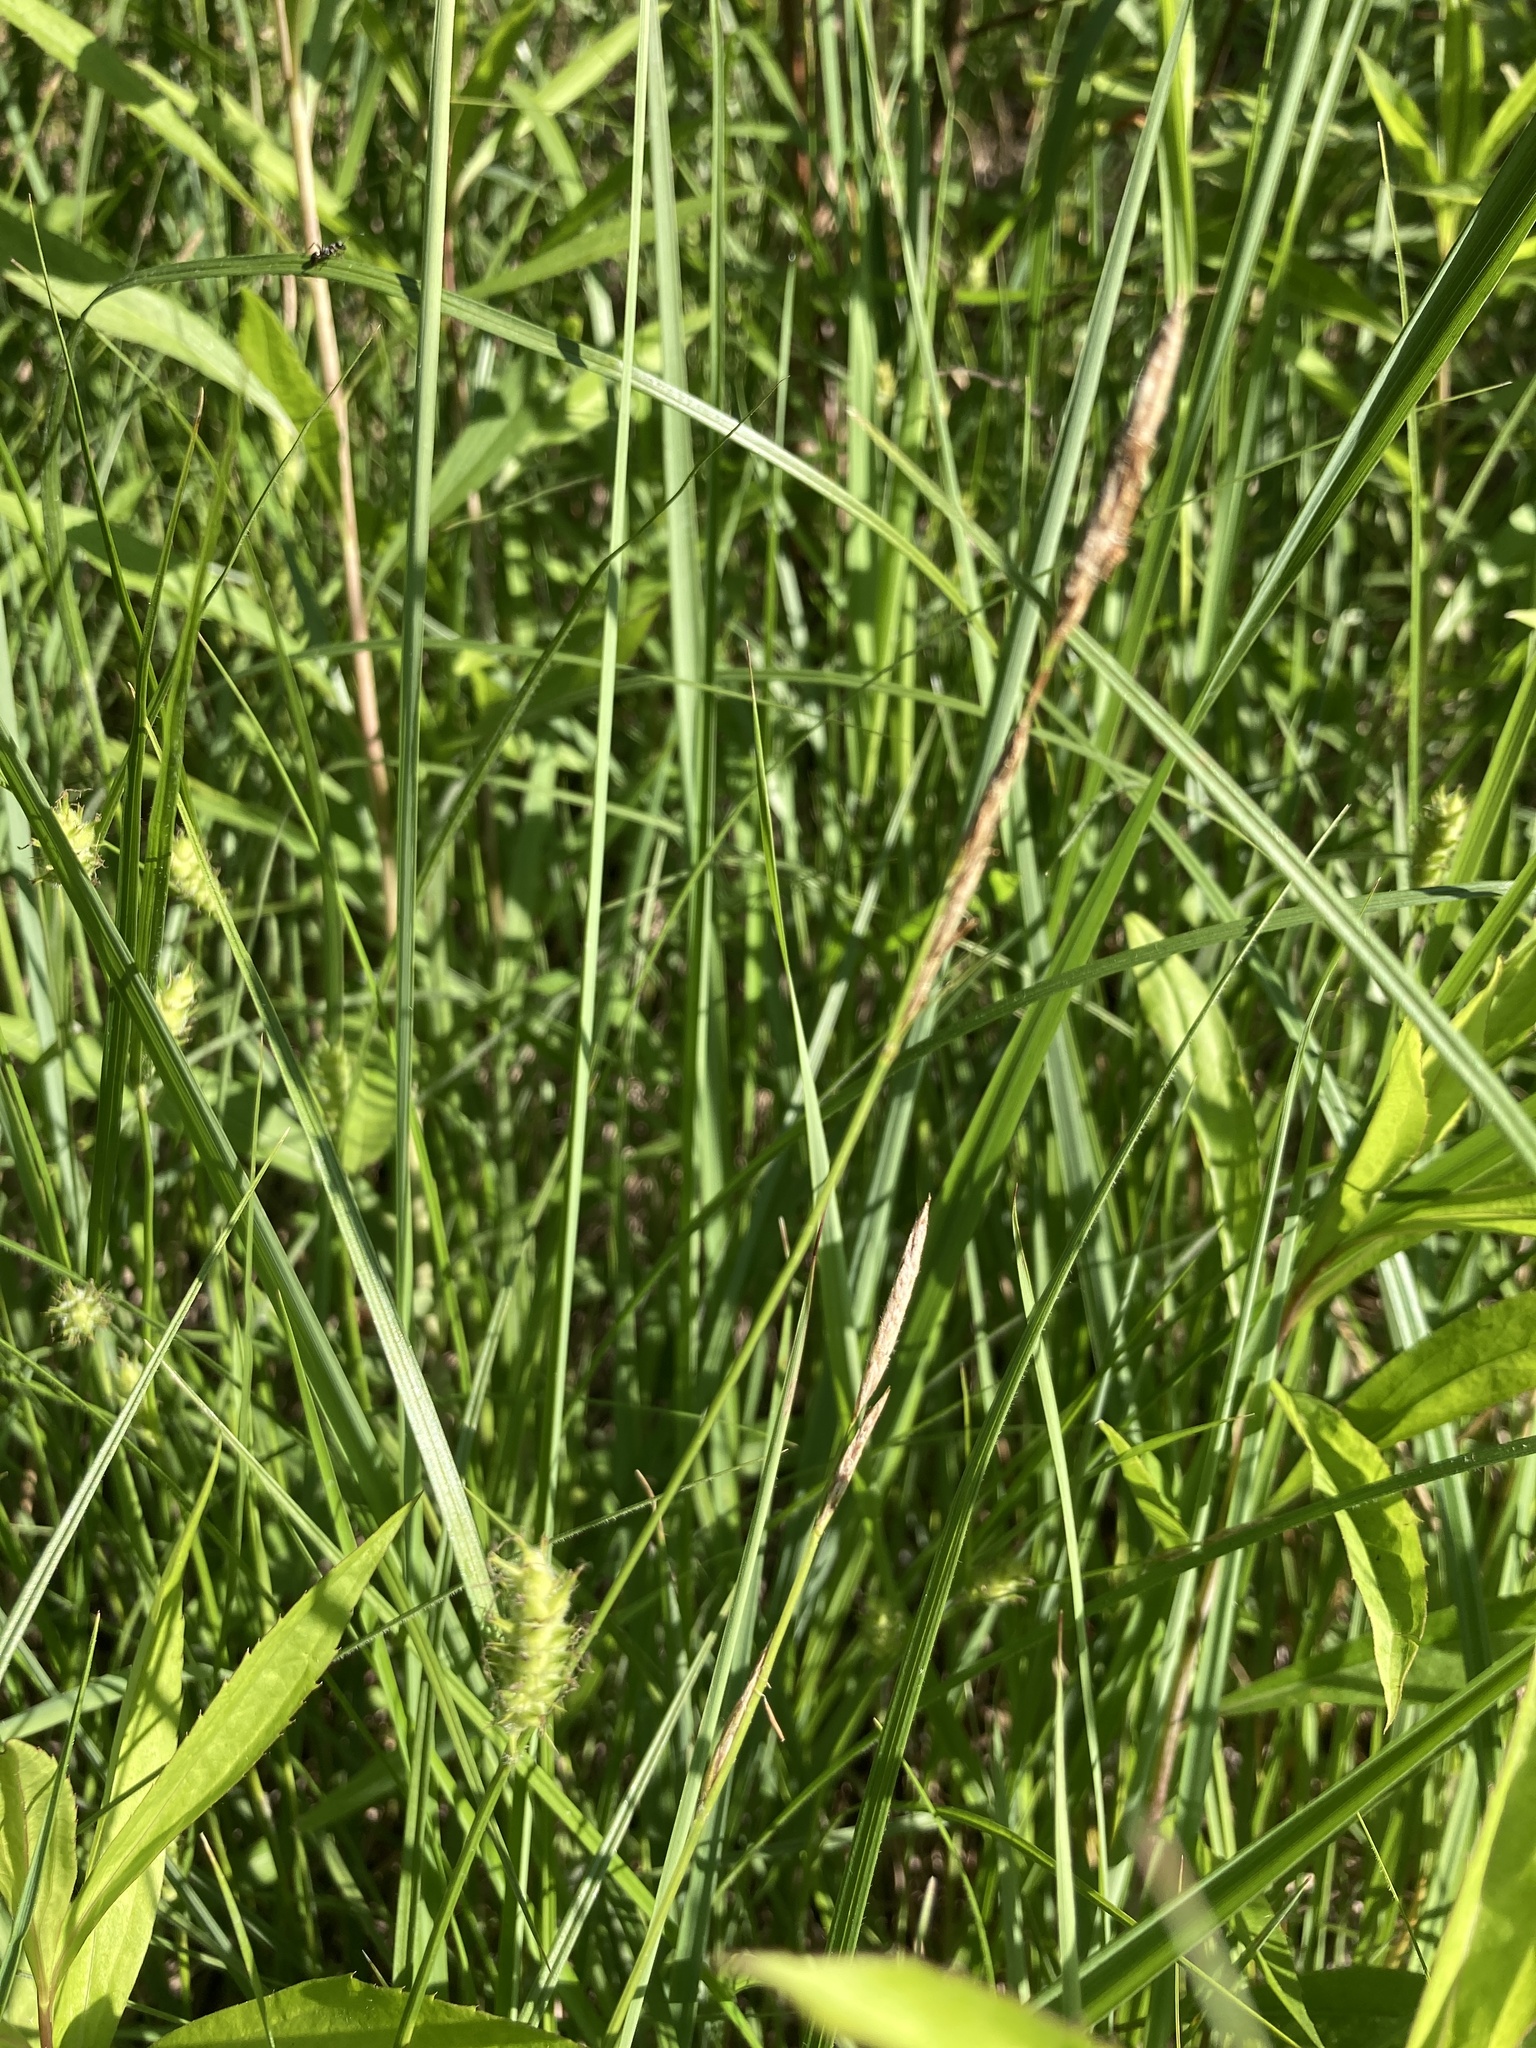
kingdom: Plantae
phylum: Tracheophyta
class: Liliopsida
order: Poales
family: Cyperaceae
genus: Carex
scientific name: Carex hirta
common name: Hairy sedge
